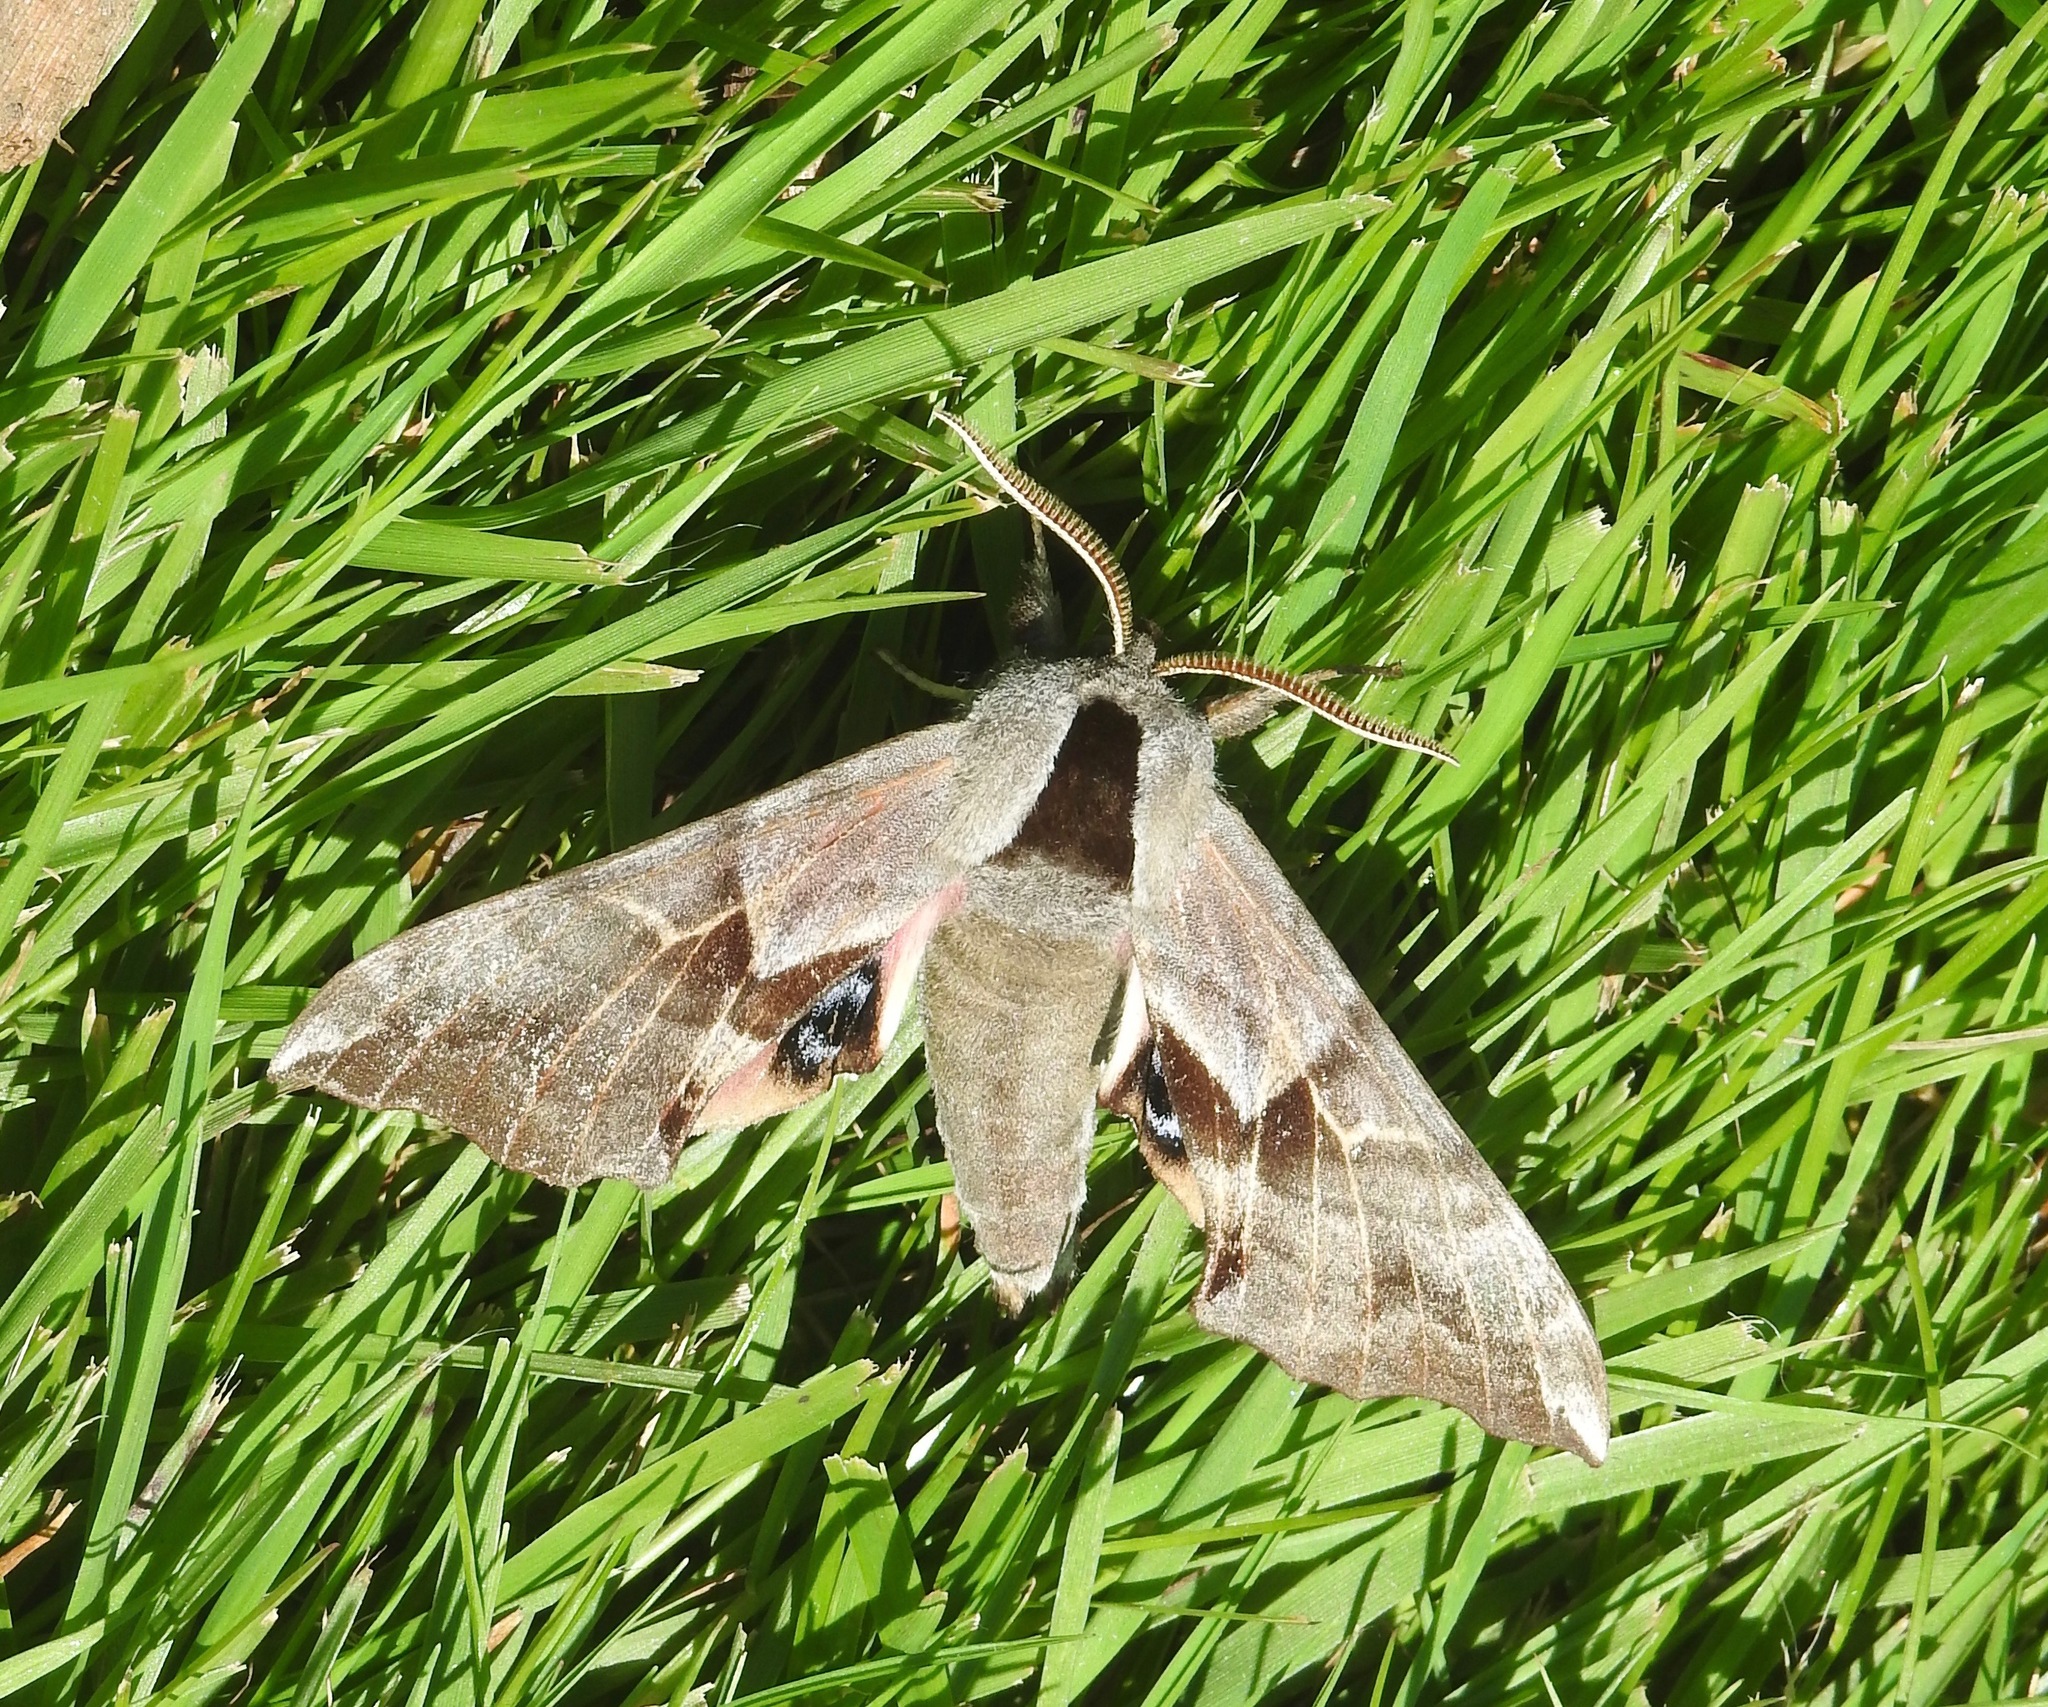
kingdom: Animalia
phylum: Arthropoda
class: Insecta
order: Lepidoptera
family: Sphingidae
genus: Smerinthus
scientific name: Smerinthus cerisyi
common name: Cerisy's sphinx moth
